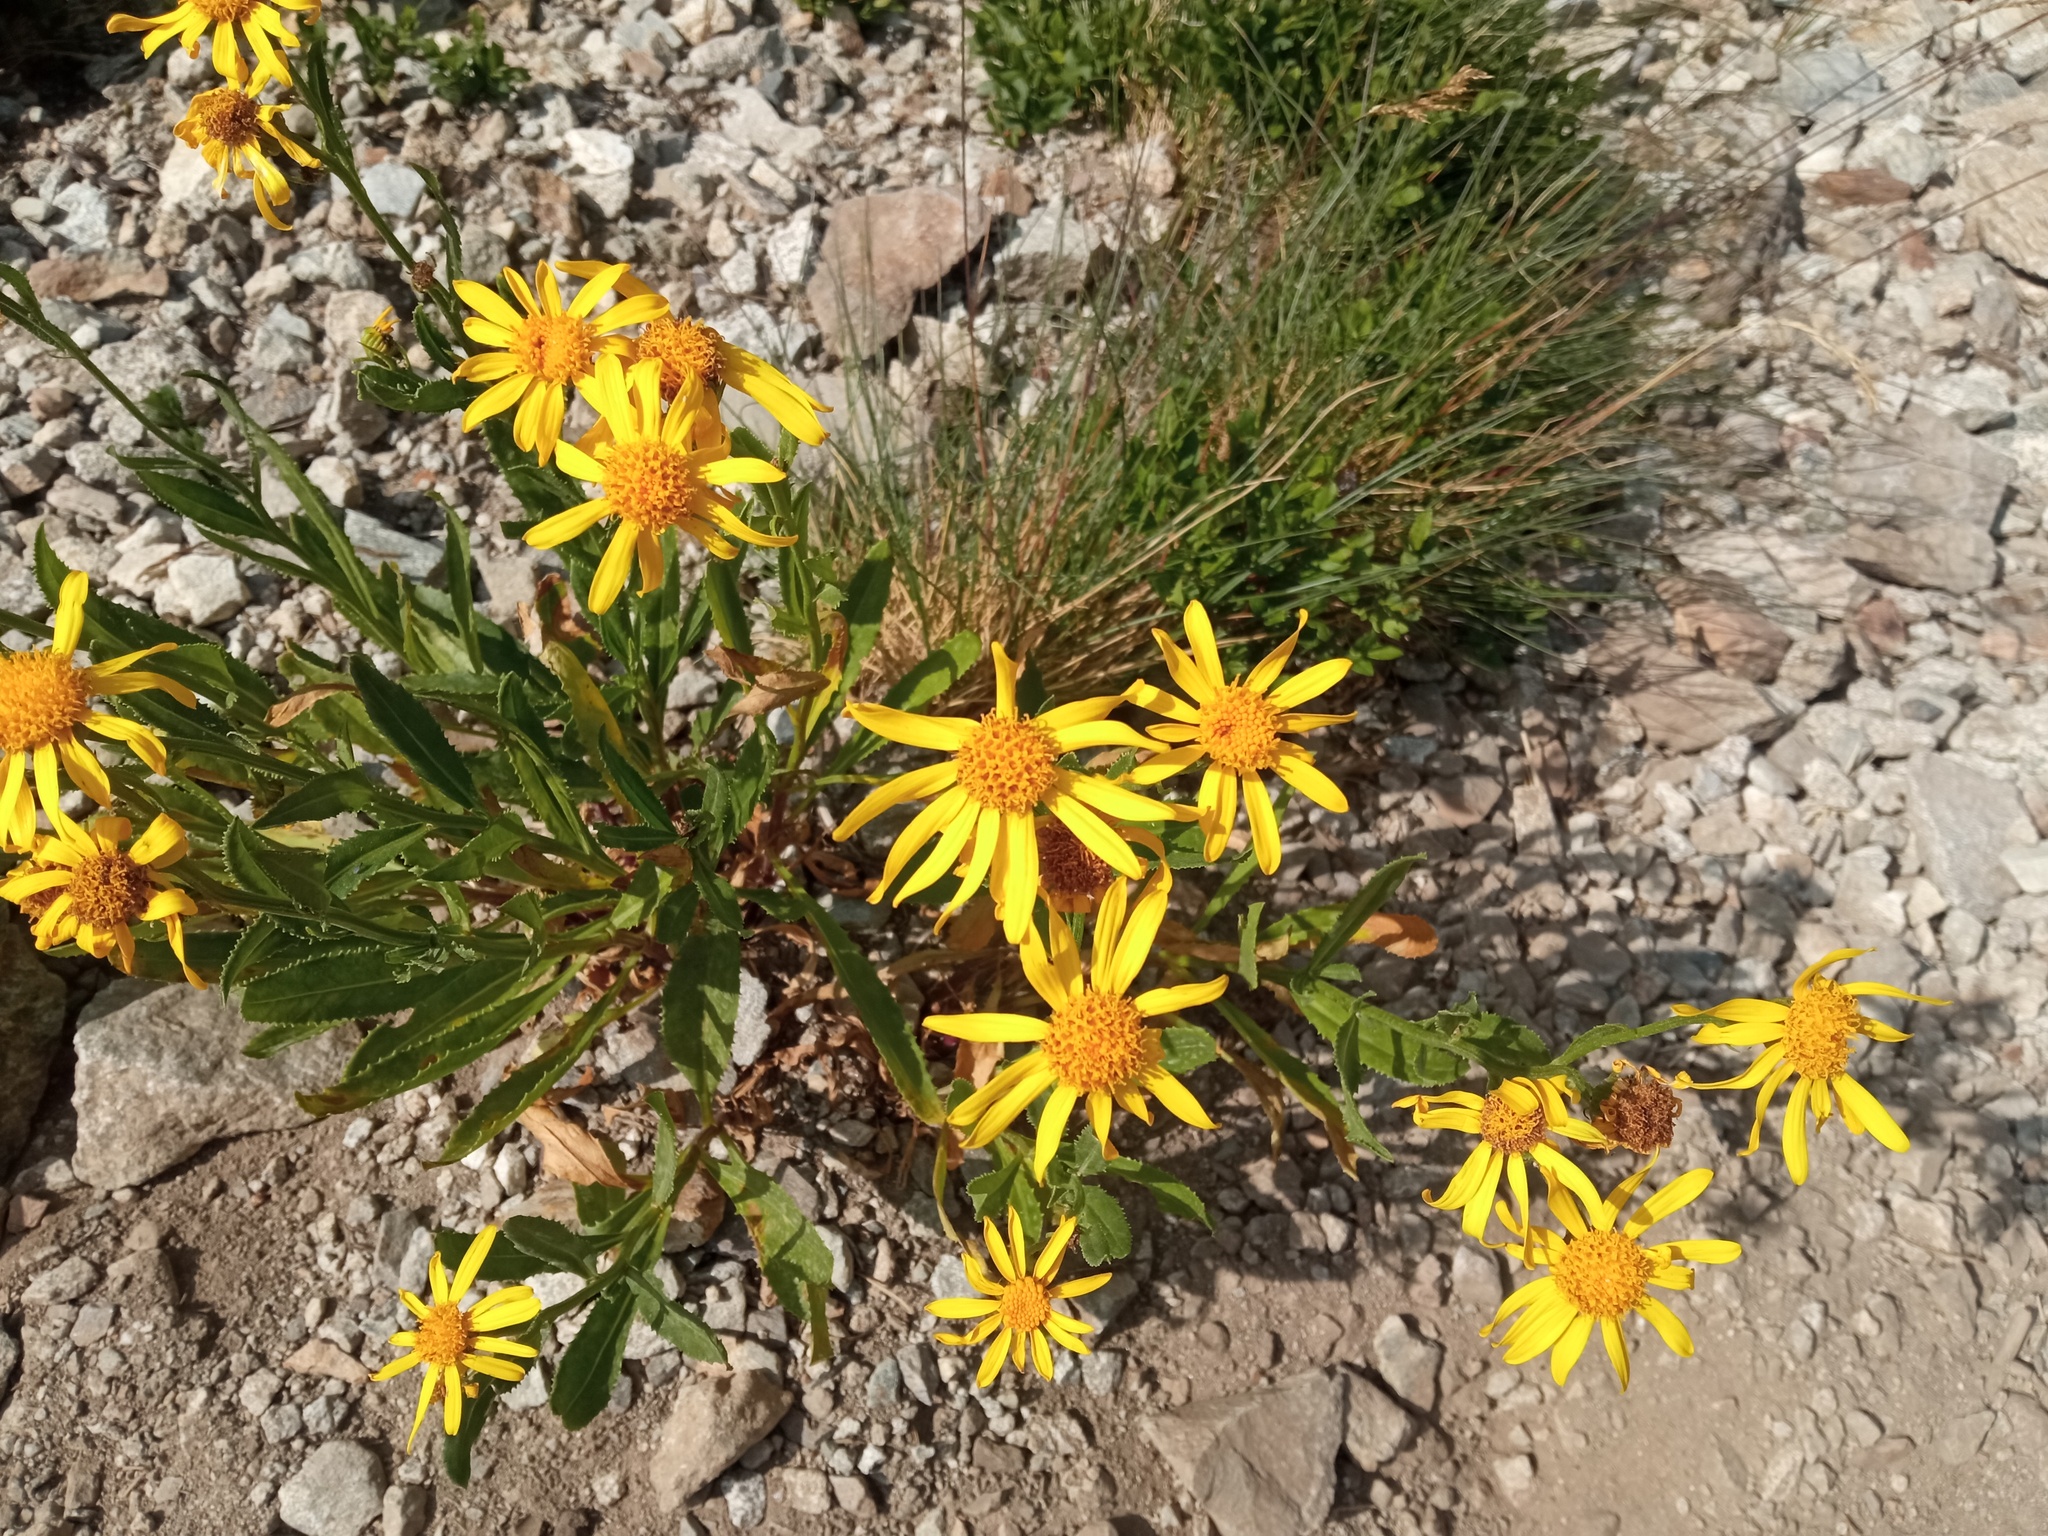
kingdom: Plantae
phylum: Tracheophyta
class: Magnoliopsida
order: Asterales
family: Asteraceae
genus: Senecio
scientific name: Senecio pyrenaicus
